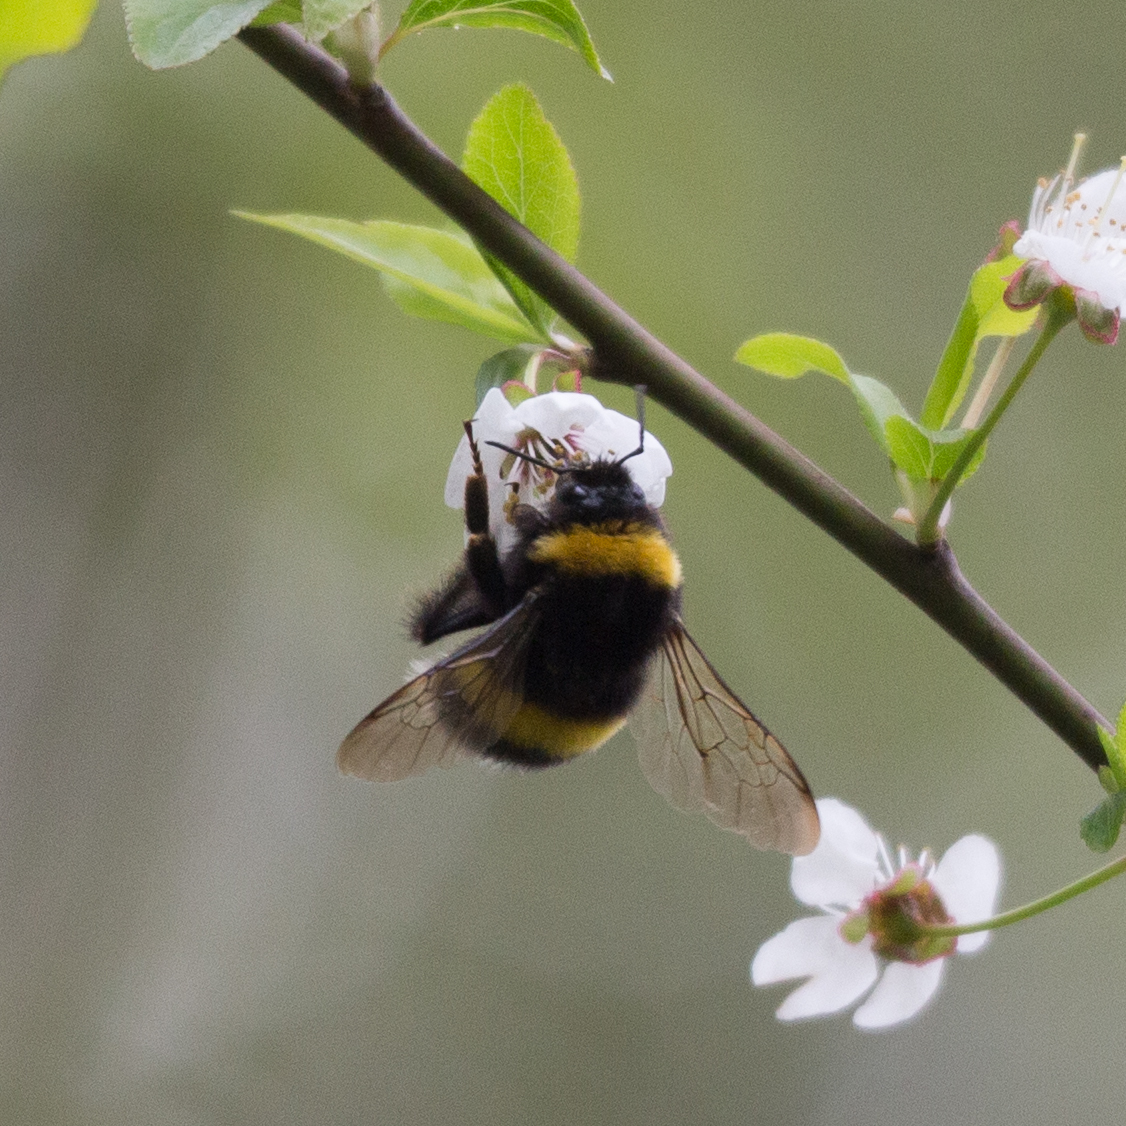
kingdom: Animalia
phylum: Arthropoda
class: Insecta
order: Hymenoptera
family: Apidae
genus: Bombus
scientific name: Bombus
